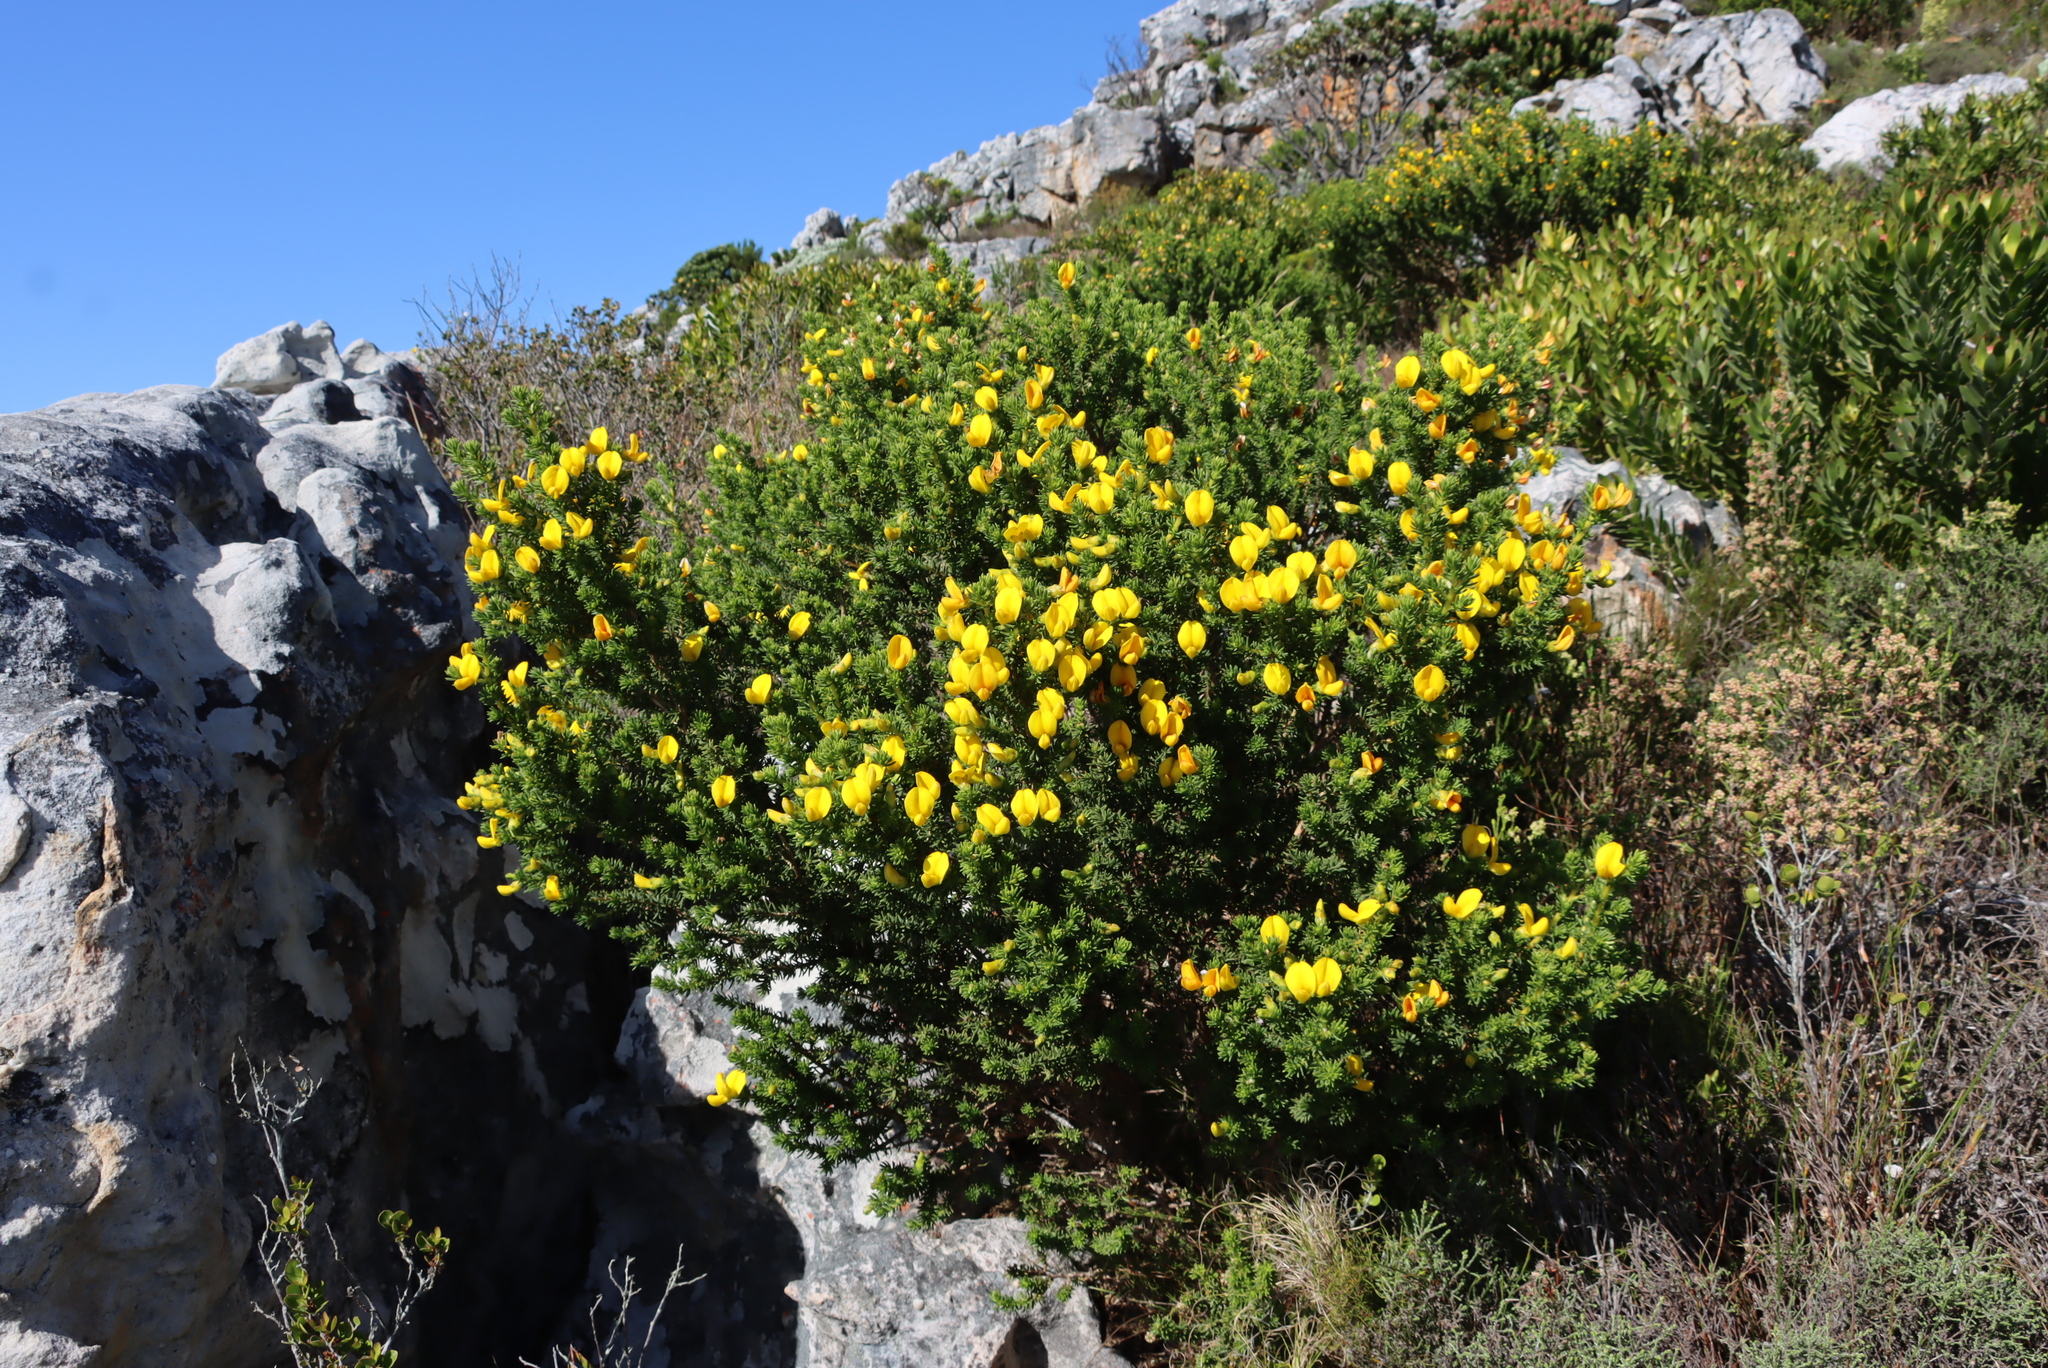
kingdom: Plantae
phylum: Tracheophyta
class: Magnoliopsida
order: Fabales
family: Fabaceae
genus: Aspalathus
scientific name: Aspalathus capensis
